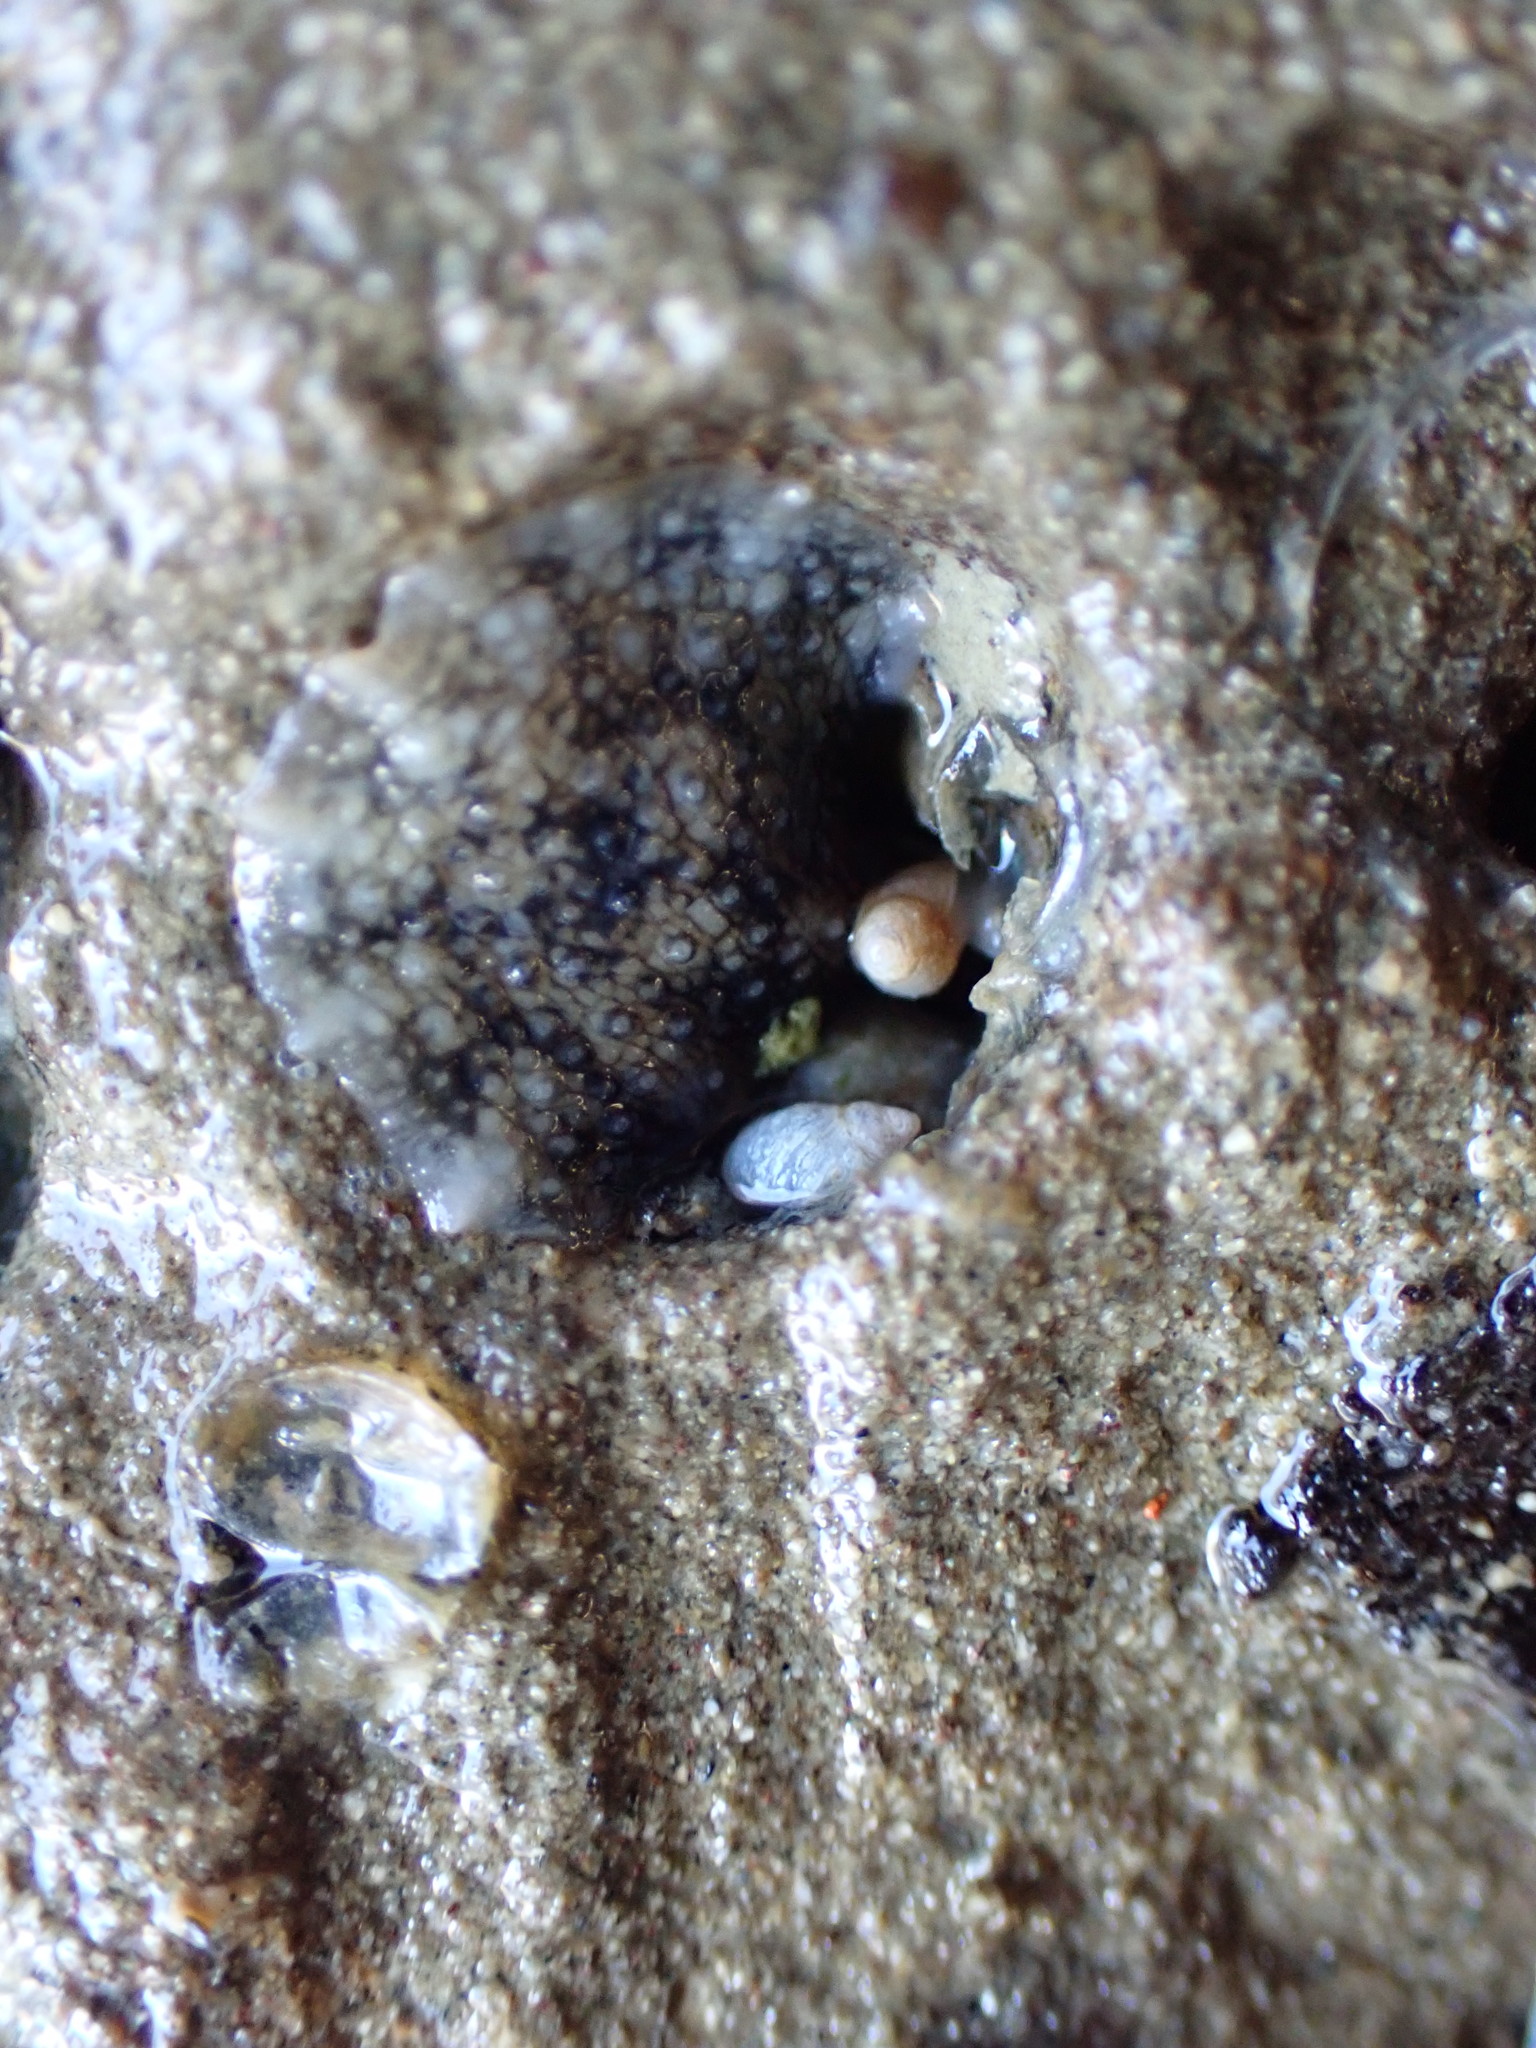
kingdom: Animalia
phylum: Mollusca
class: Gastropoda
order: Systellommatophora
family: Onchidiidae
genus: Onchidella
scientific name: Onchidella nigricans
